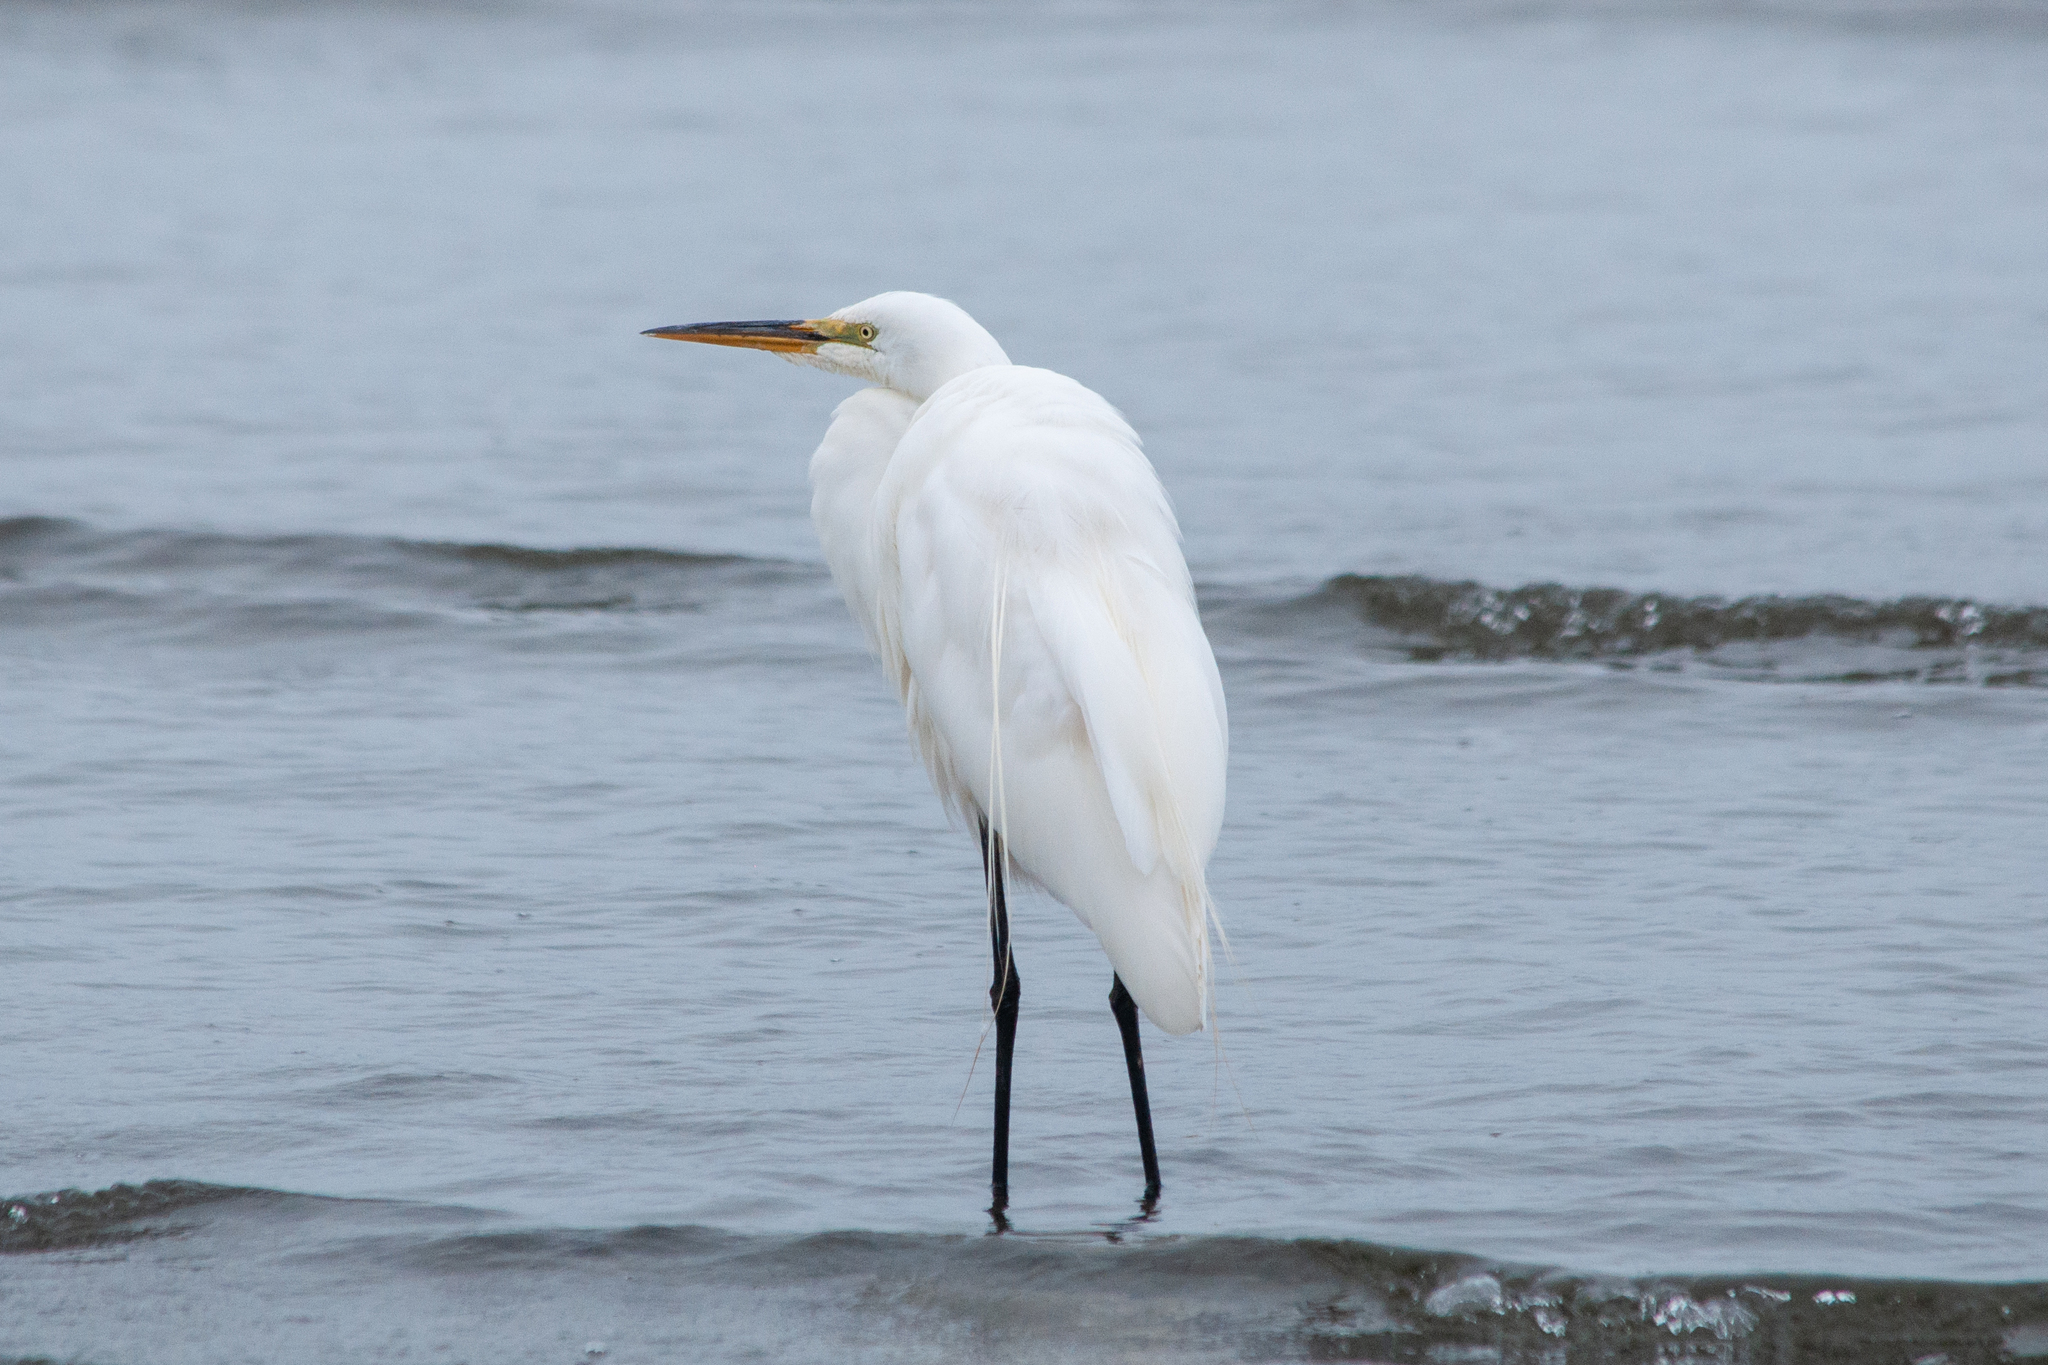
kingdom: Animalia
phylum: Chordata
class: Aves
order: Pelecaniformes
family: Ardeidae
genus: Ardea
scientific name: Ardea alba
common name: Great egret
